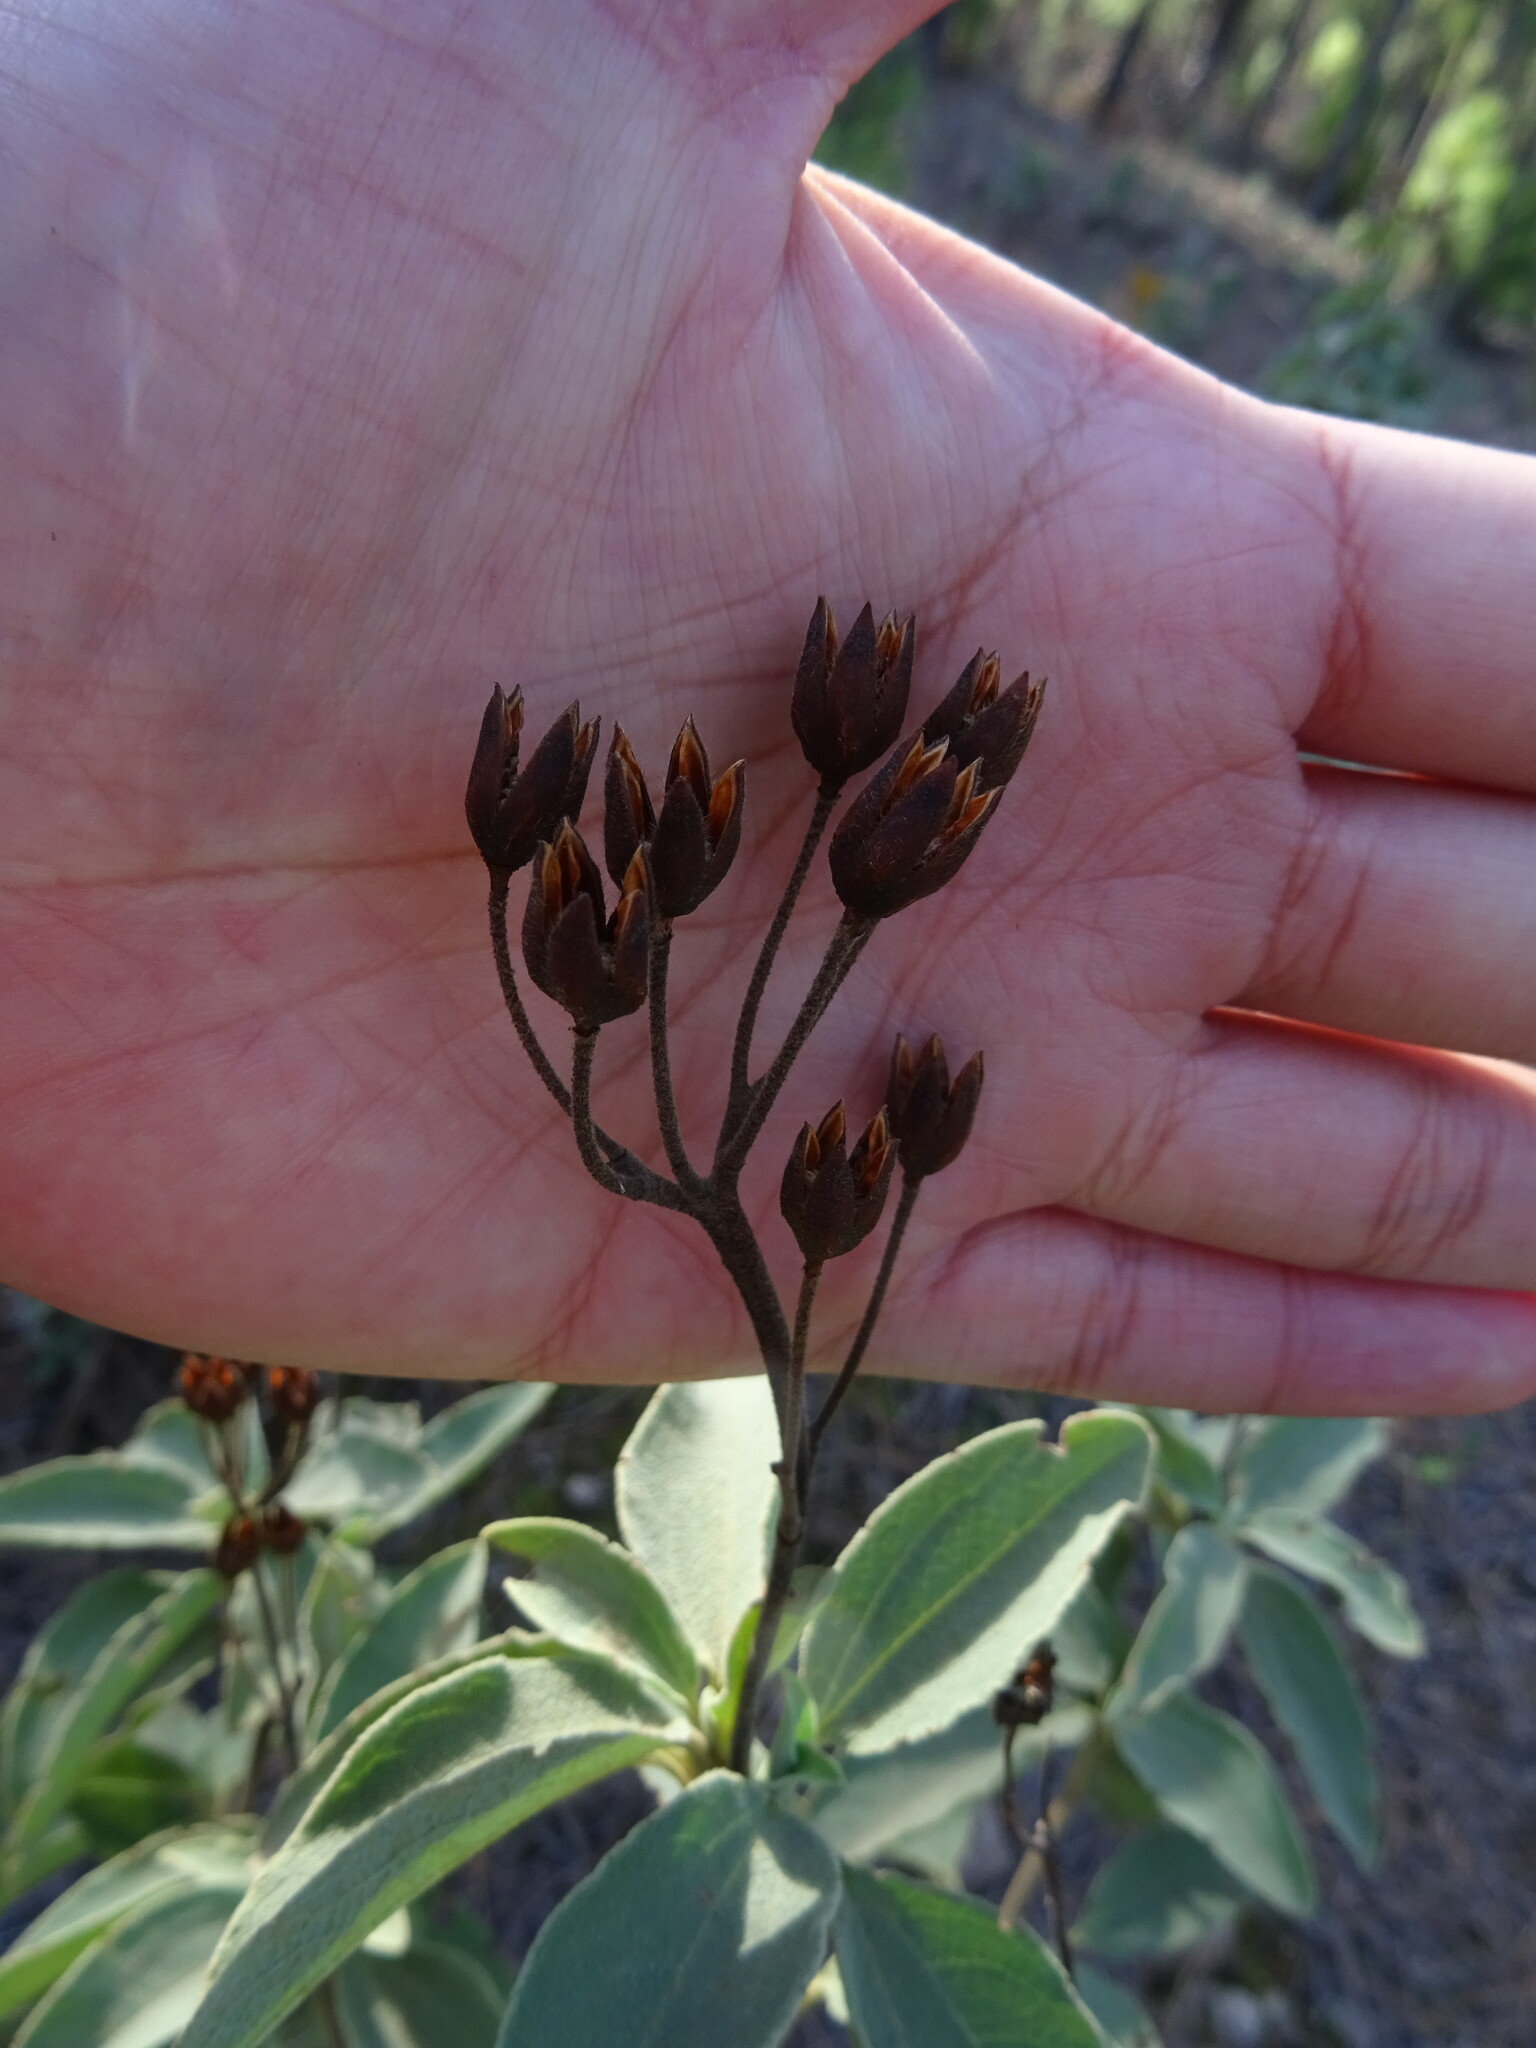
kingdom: Plantae
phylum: Tracheophyta
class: Magnoliopsida
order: Malvales
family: Cistaceae
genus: Cistus
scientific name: Cistus symphytifolius
